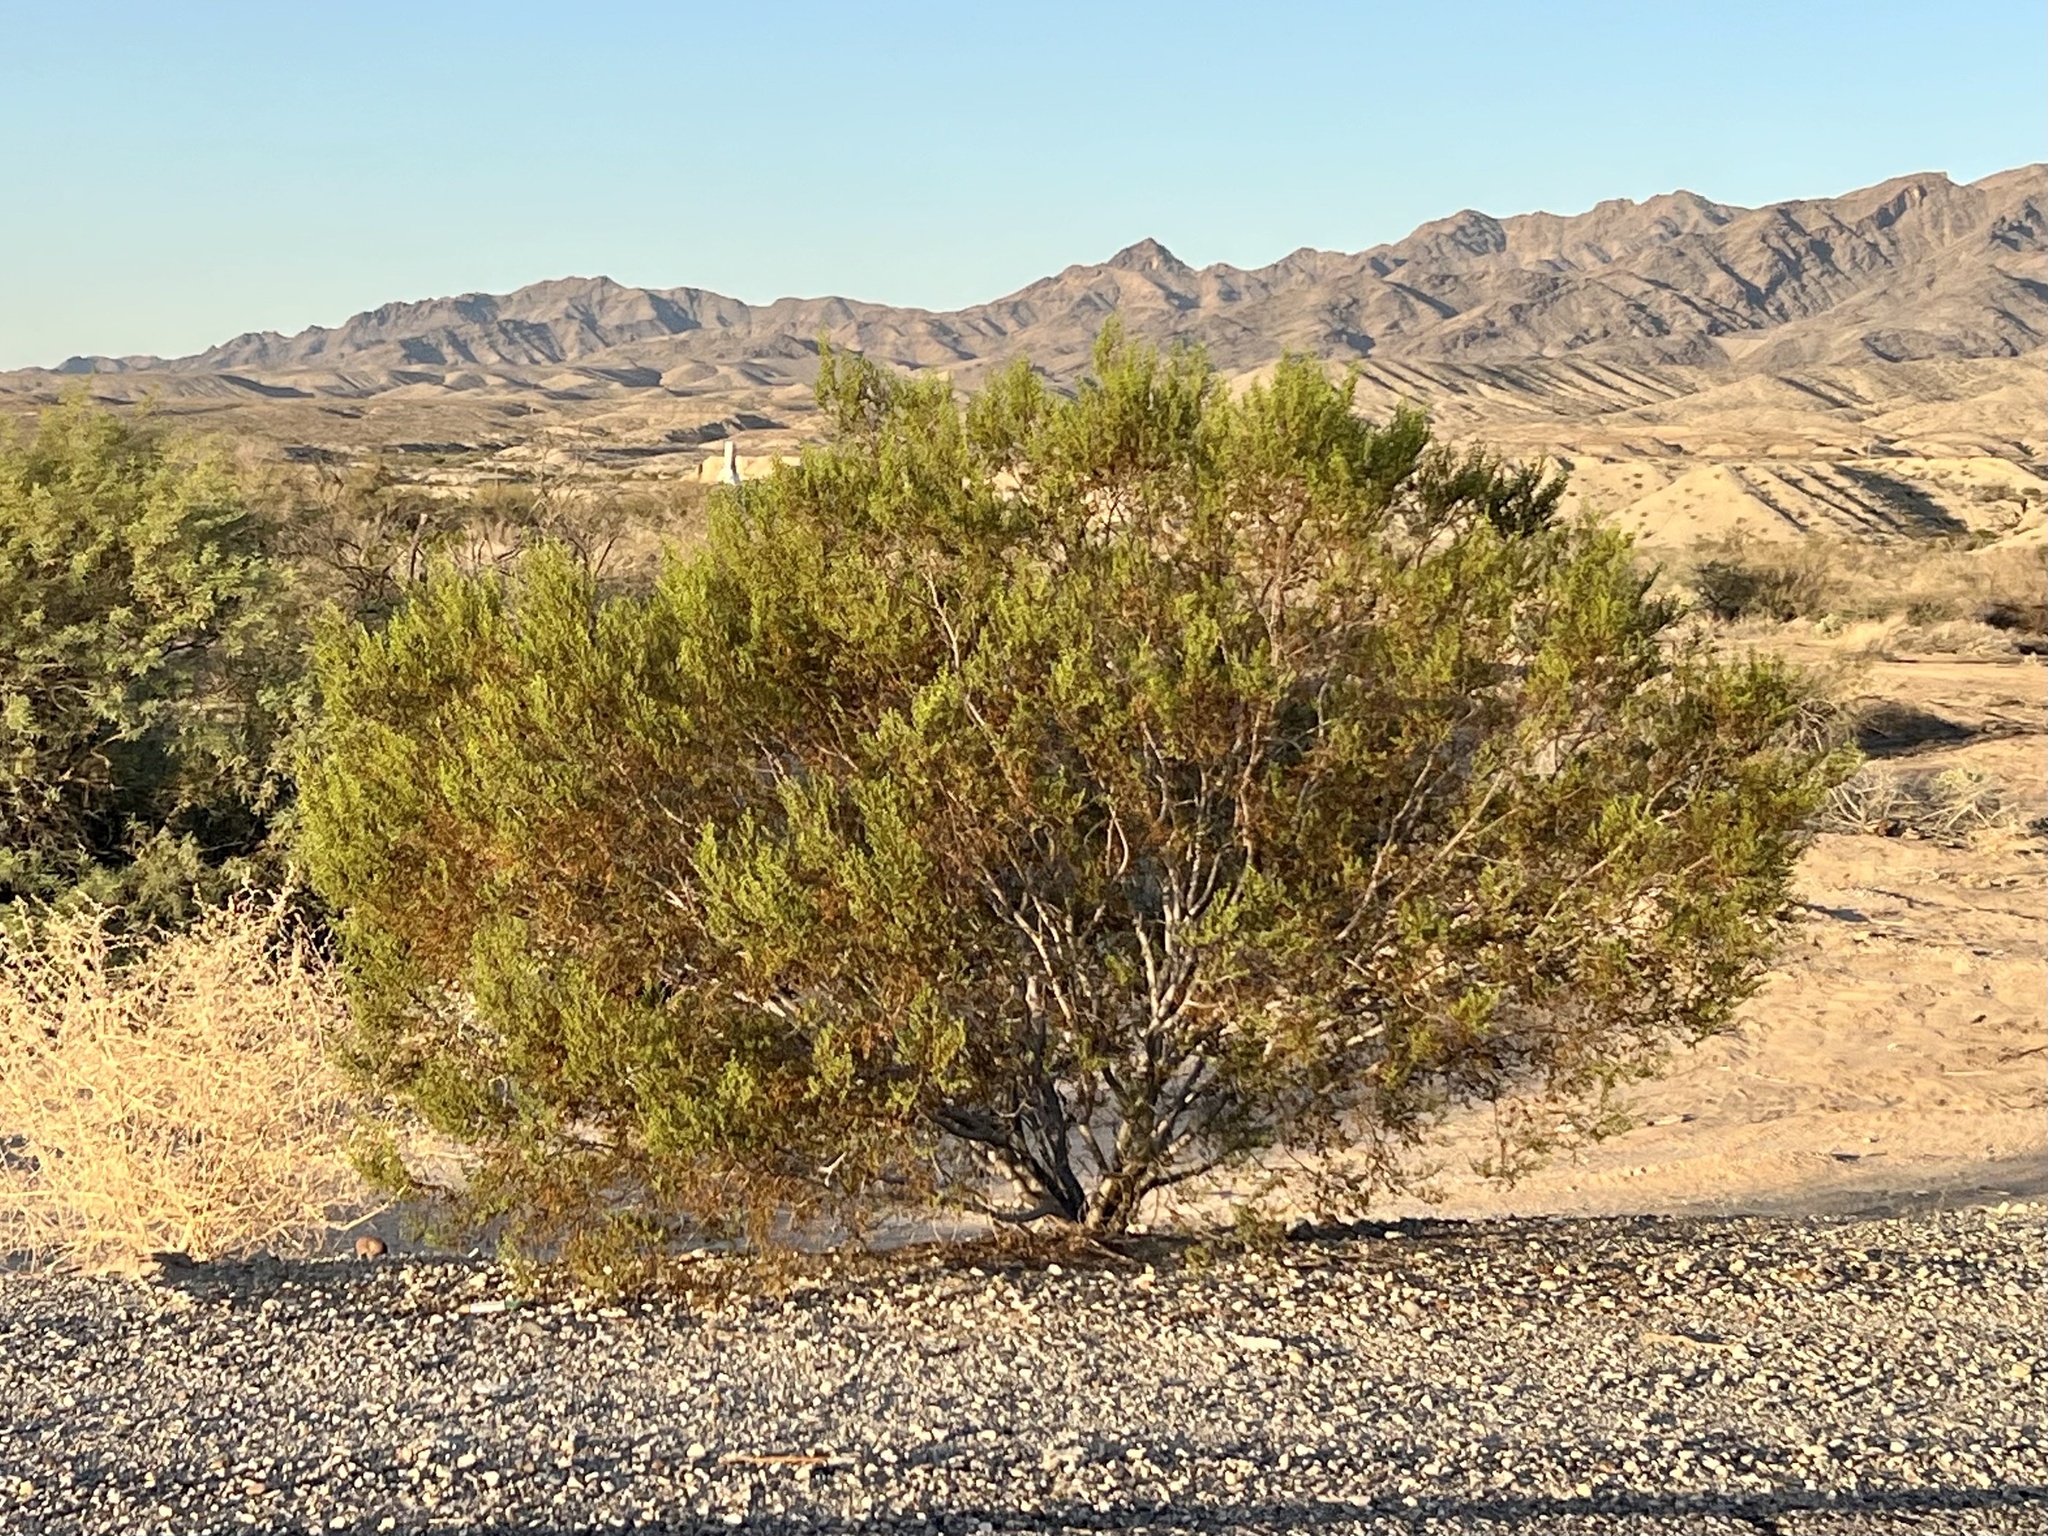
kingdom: Plantae
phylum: Tracheophyta
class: Magnoliopsida
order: Zygophyllales
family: Zygophyllaceae
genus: Larrea
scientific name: Larrea tridentata
